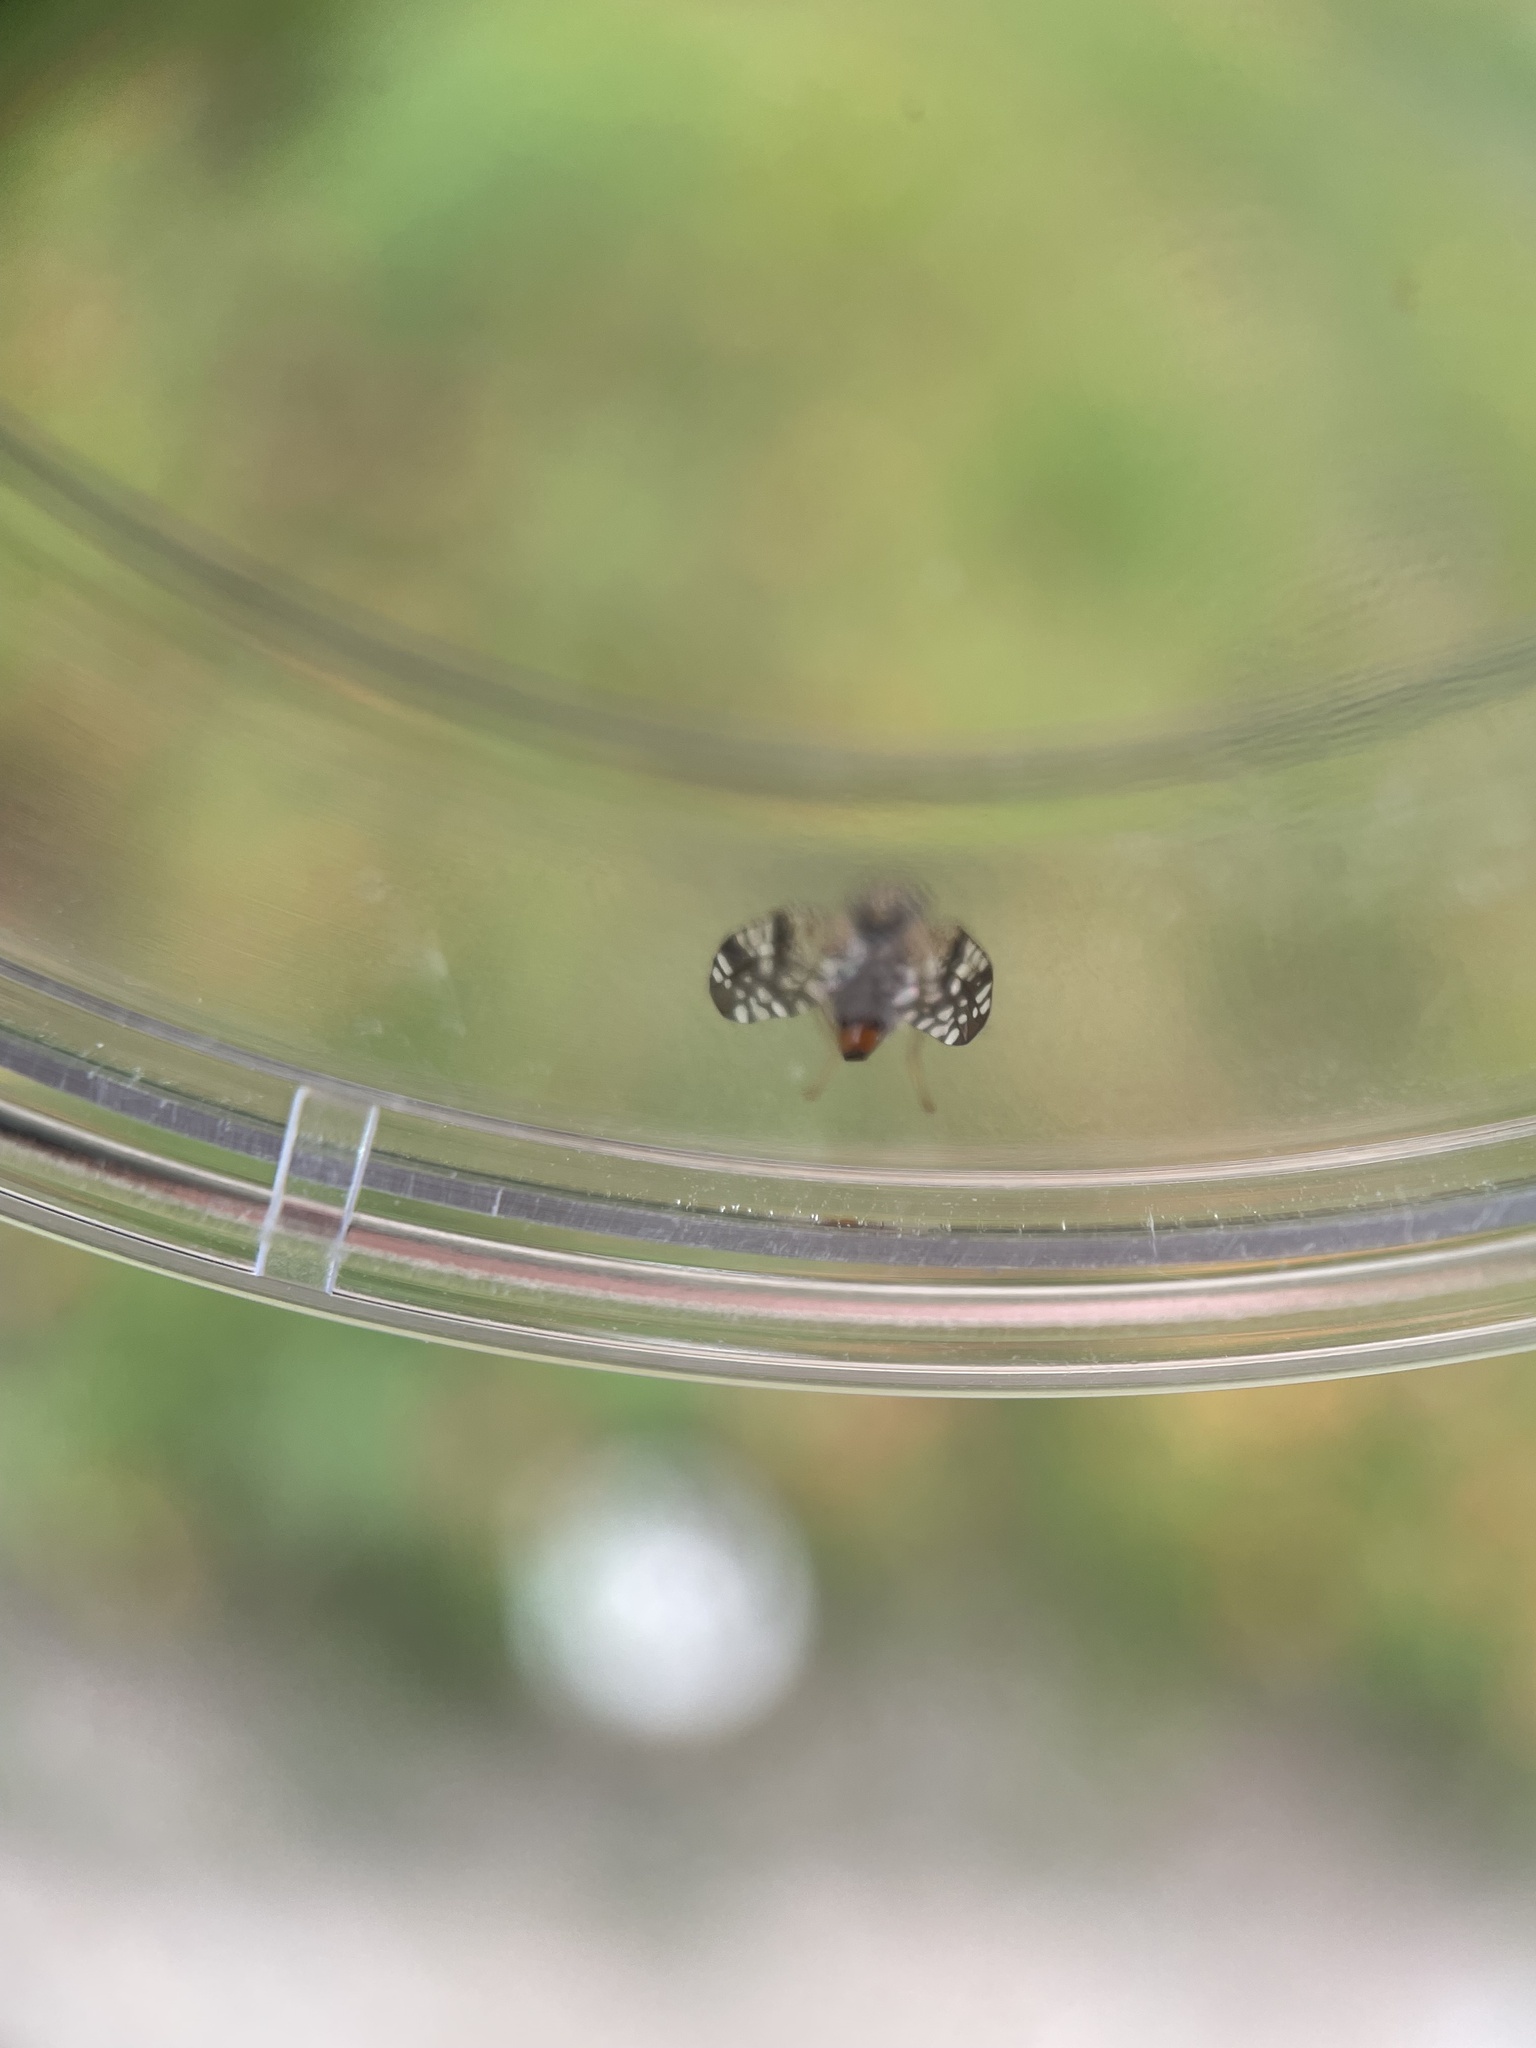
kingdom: Animalia
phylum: Arthropoda
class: Insecta
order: Diptera
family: Tephritidae
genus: Neotephritis
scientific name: Neotephritis finalis
